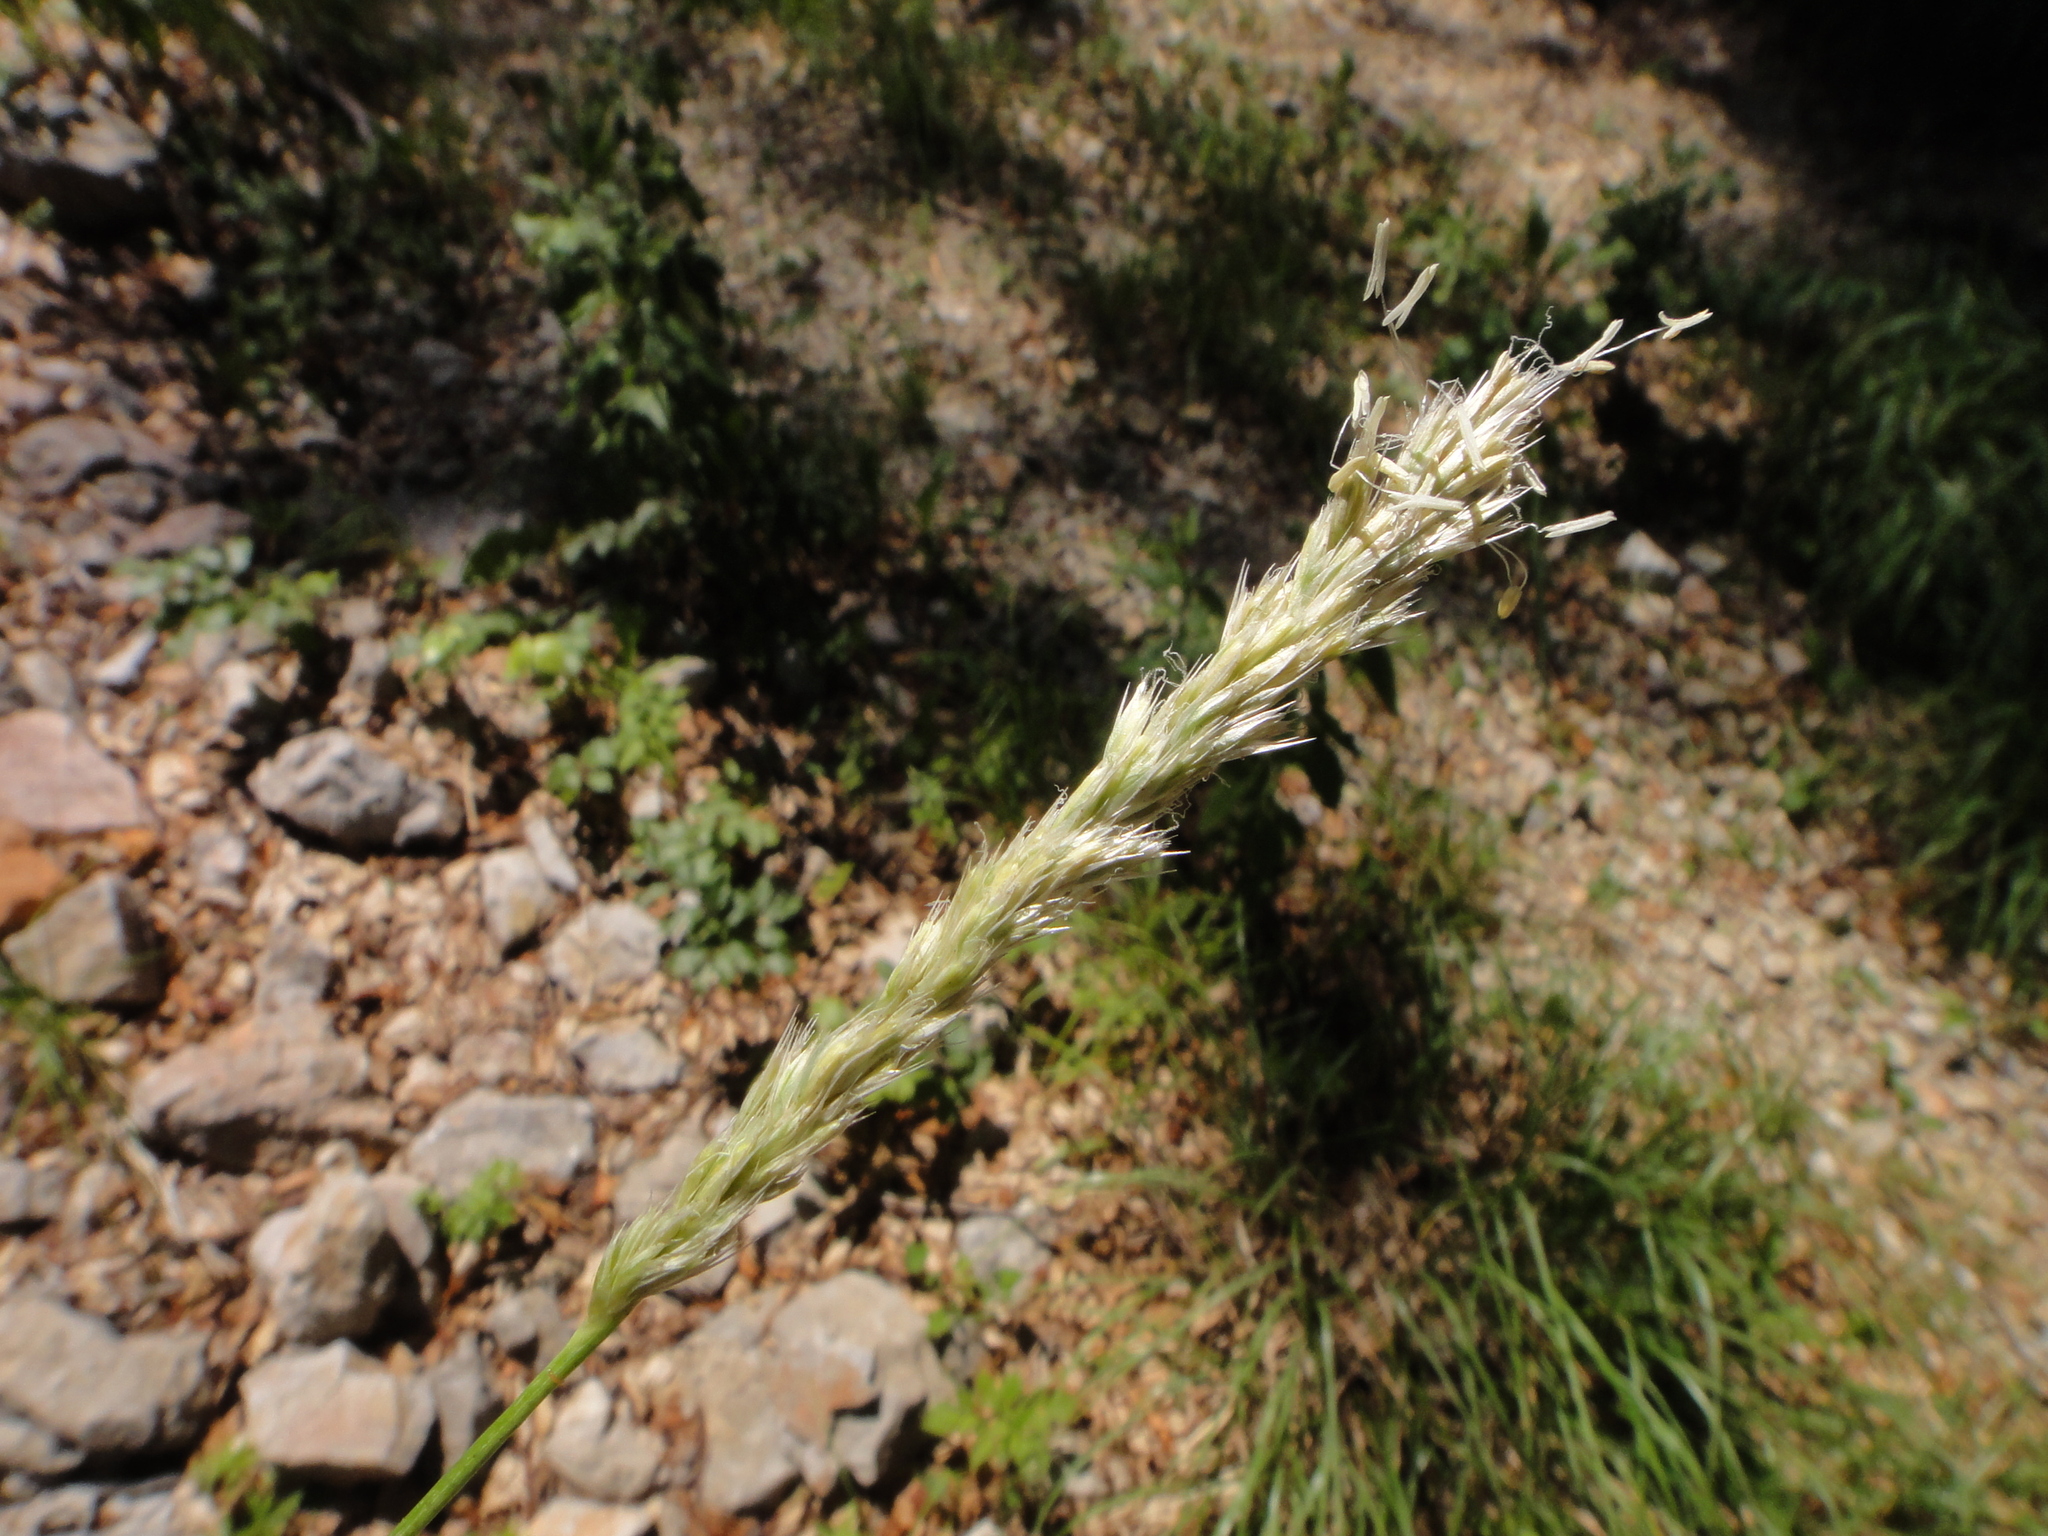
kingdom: Plantae
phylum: Tracheophyta
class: Liliopsida
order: Poales
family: Poaceae
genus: Sesleria
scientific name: Sesleria autumnalis
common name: Autumn moor grass
